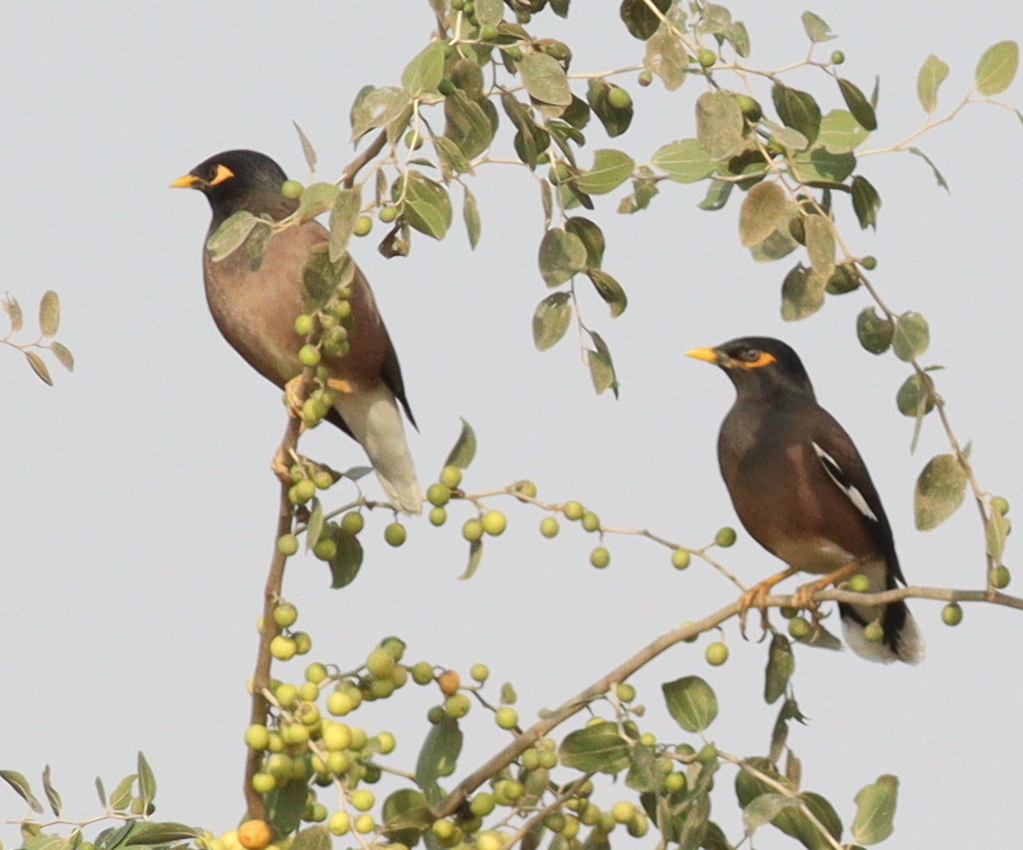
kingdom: Animalia
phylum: Chordata
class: Aves
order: Passeriformes
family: Sturnidae
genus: Acridotheres
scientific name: Acridotheres tristis
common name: Common myna
